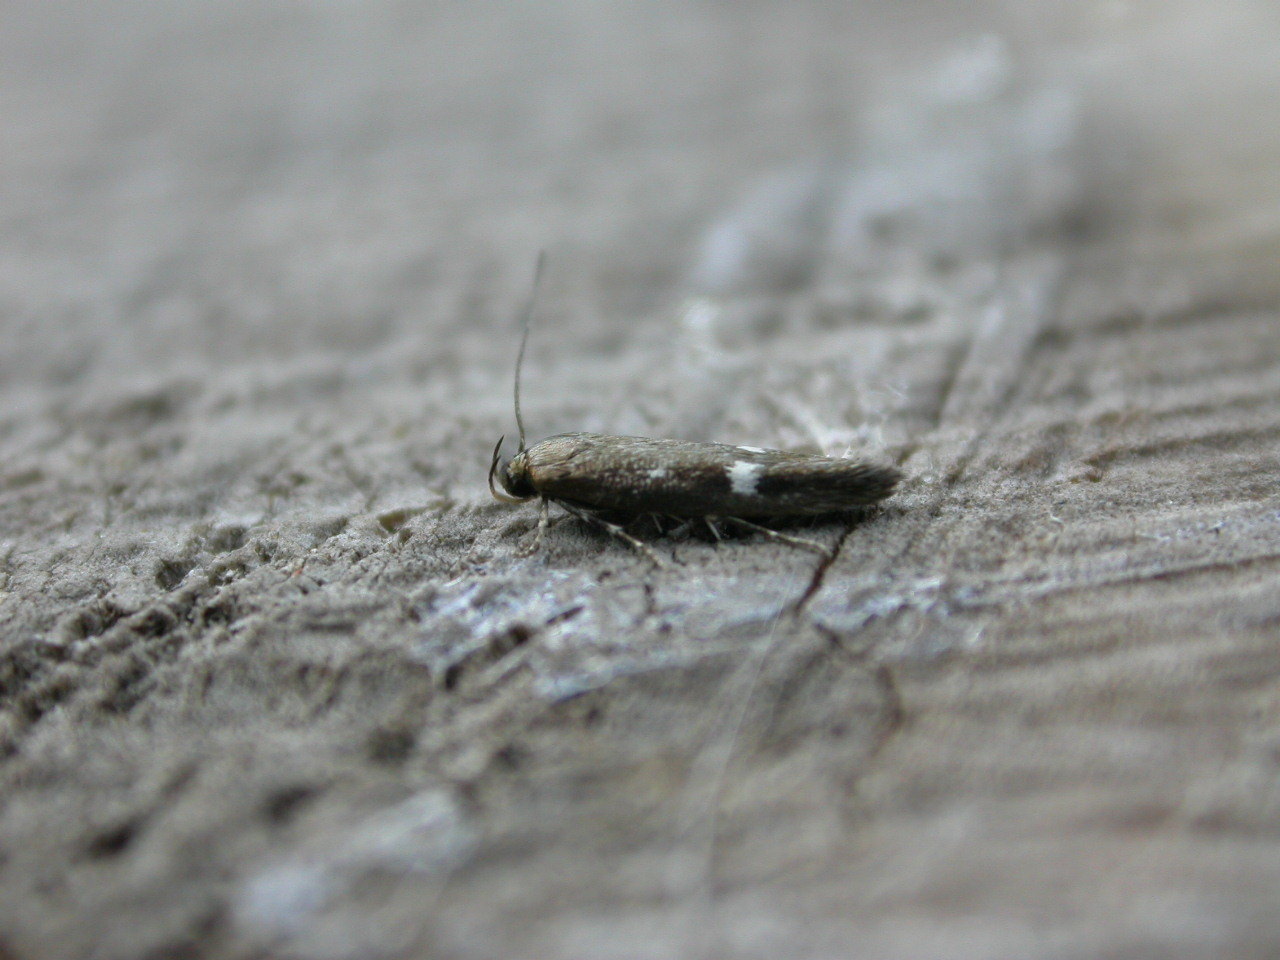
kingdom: Animalia
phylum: Arthropoda
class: Insecta
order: Lepidoptera
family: Momphidae
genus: Mompha
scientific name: Mompha langiella
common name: Clouded cosmet
